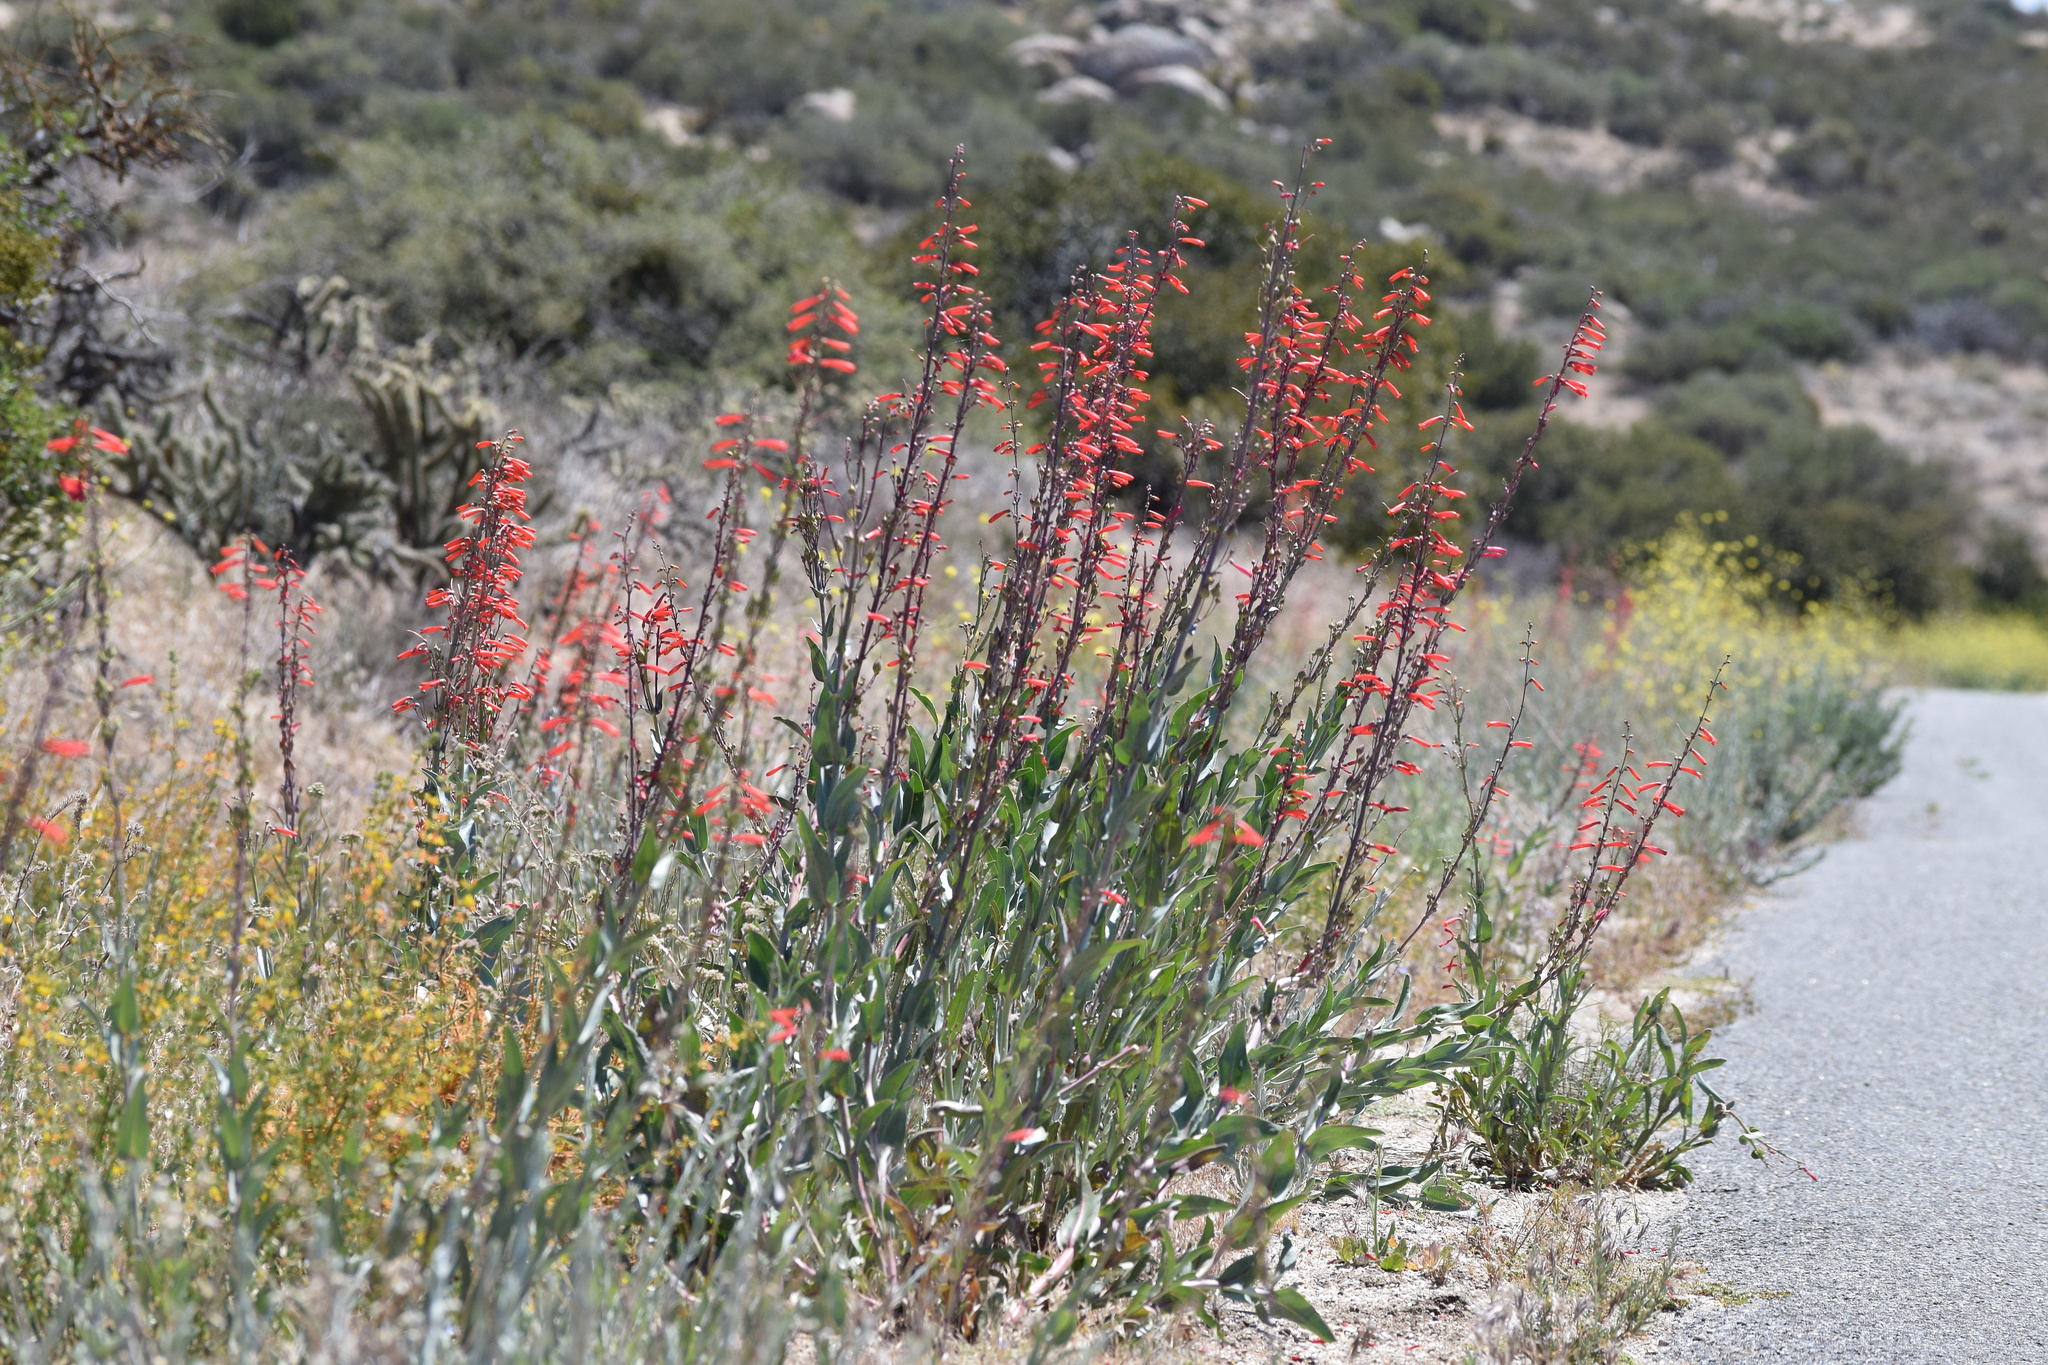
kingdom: Plantae
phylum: Tracheophyta
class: Magnoliopsida
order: Lamiales
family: Plantaginaceae
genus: Penstemon
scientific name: Penstemon centranthifolius
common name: Scarlet bugler
